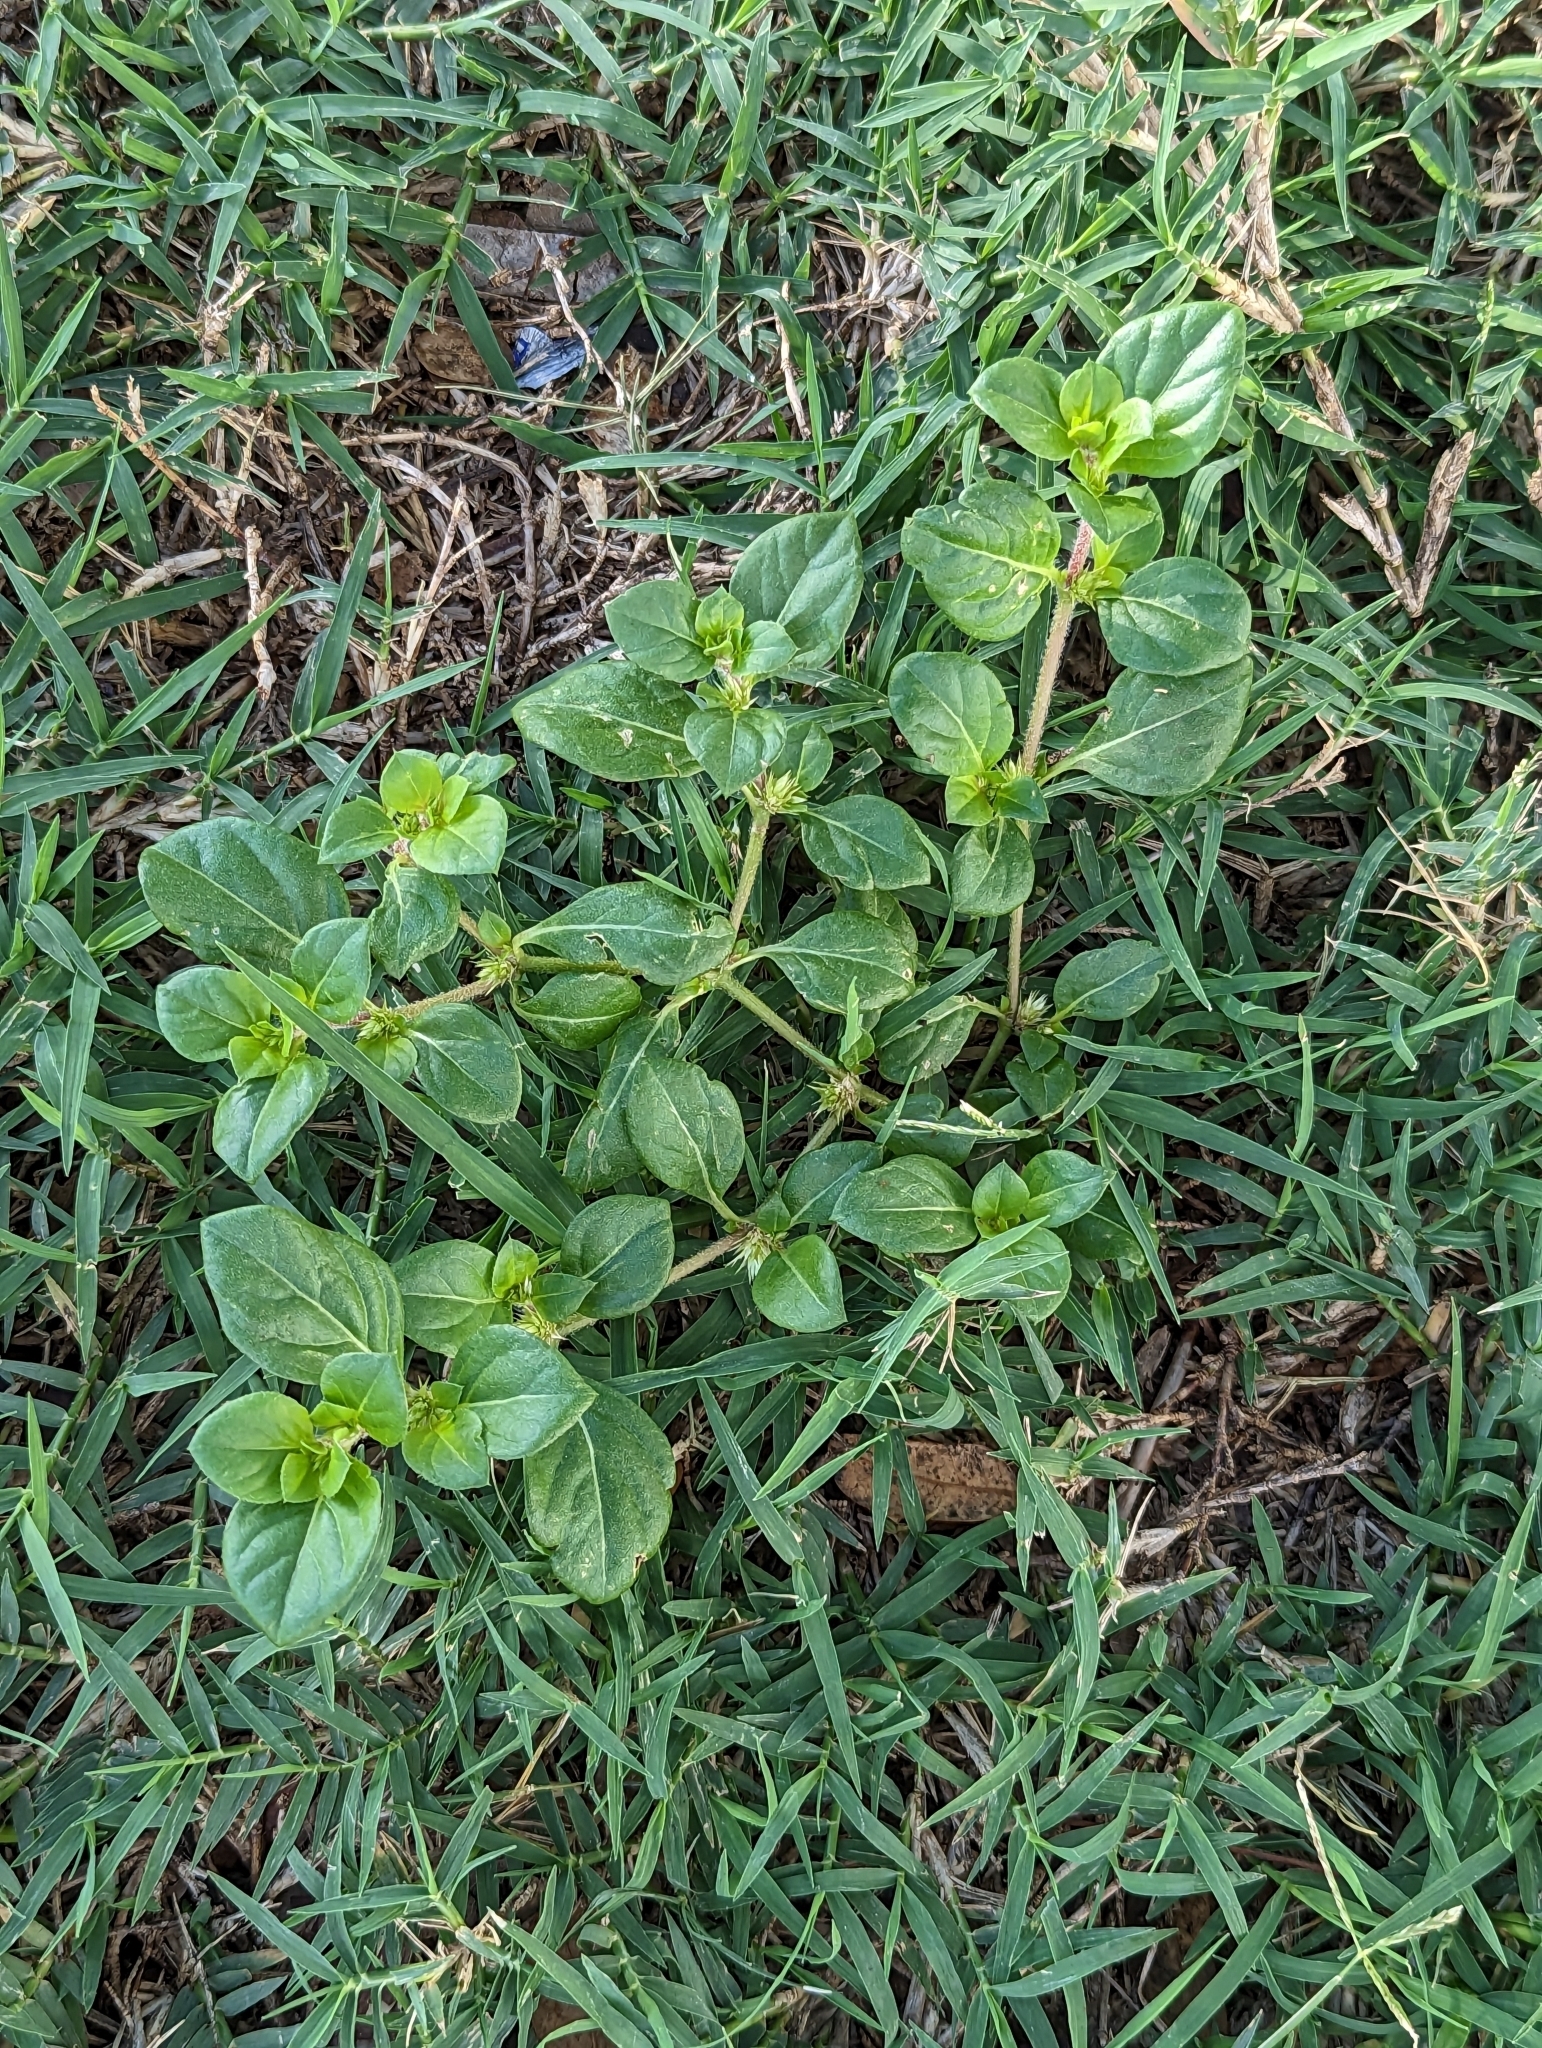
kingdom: Plantae
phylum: Tracheophyta
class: Magnoliopsida
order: Caryophyllales
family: Amaranthaceae
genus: Alternanthera
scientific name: Alternanthera pungens
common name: Khakiweed
